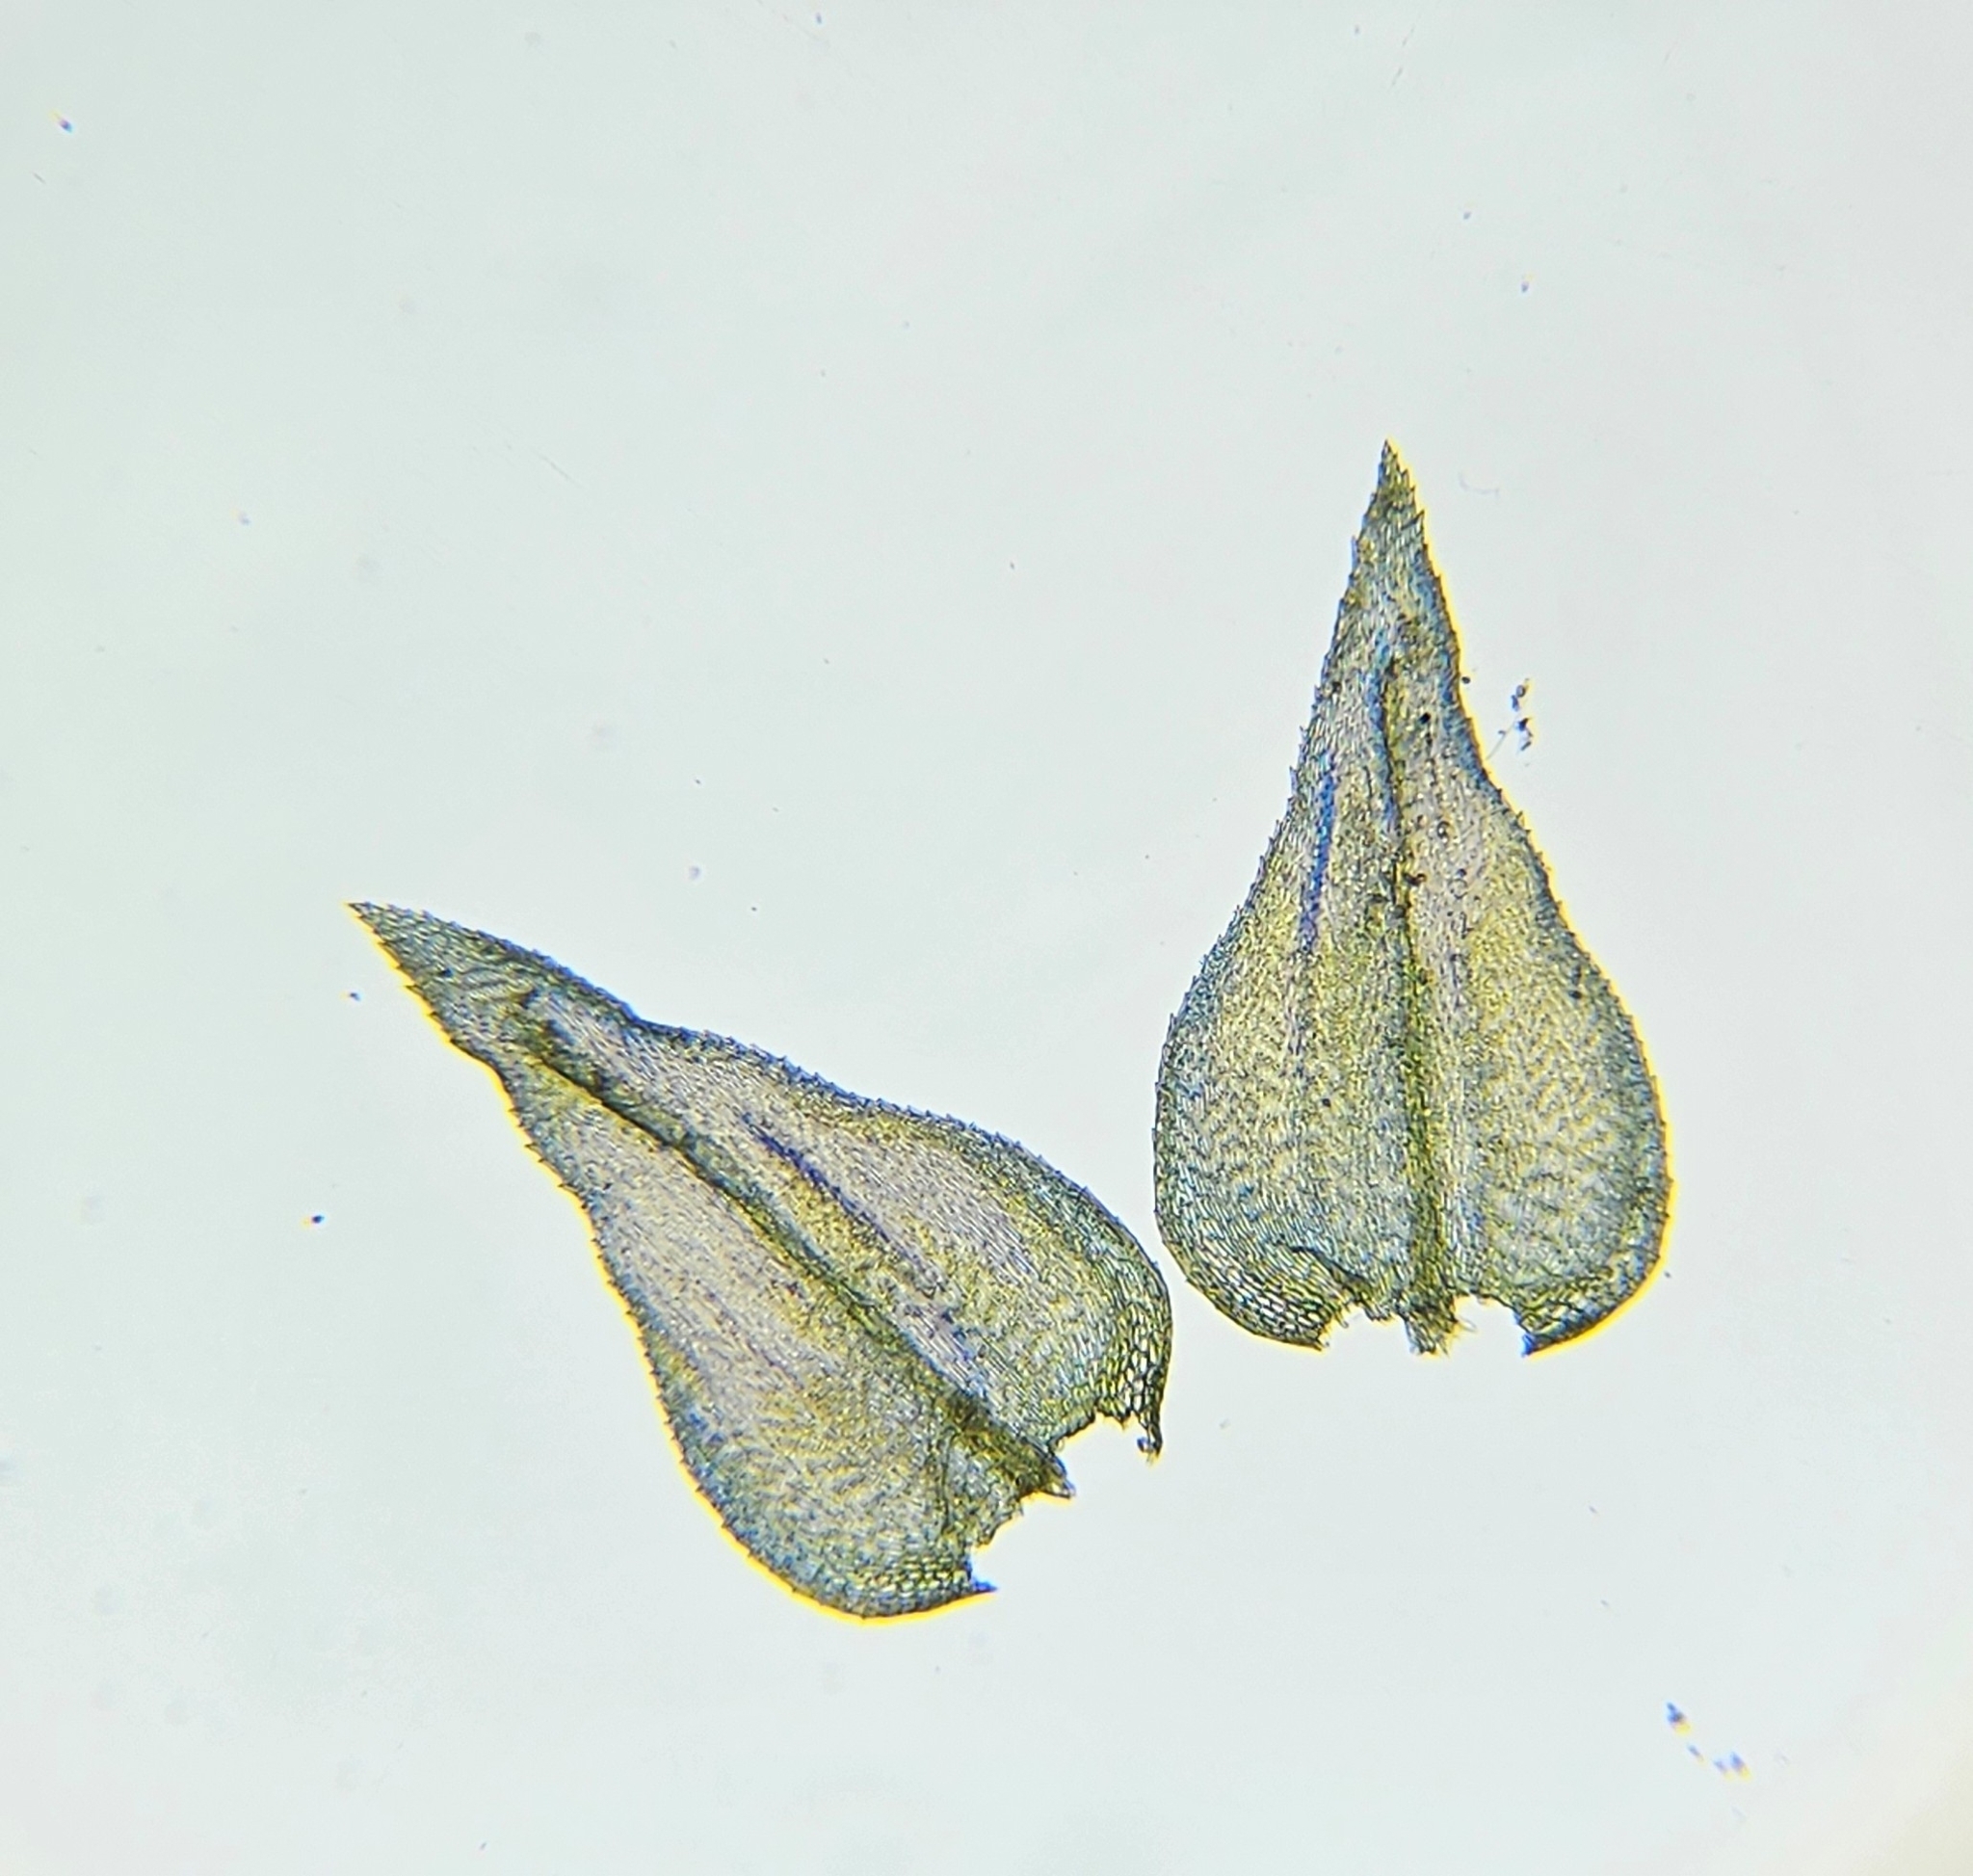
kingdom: Plantae
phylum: Bryophyta
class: Bryopsida
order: Hypnales
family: Brachytheciaceae
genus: Eurhynchium
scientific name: Eurhynchium striatum
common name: Common striated feather-moss
